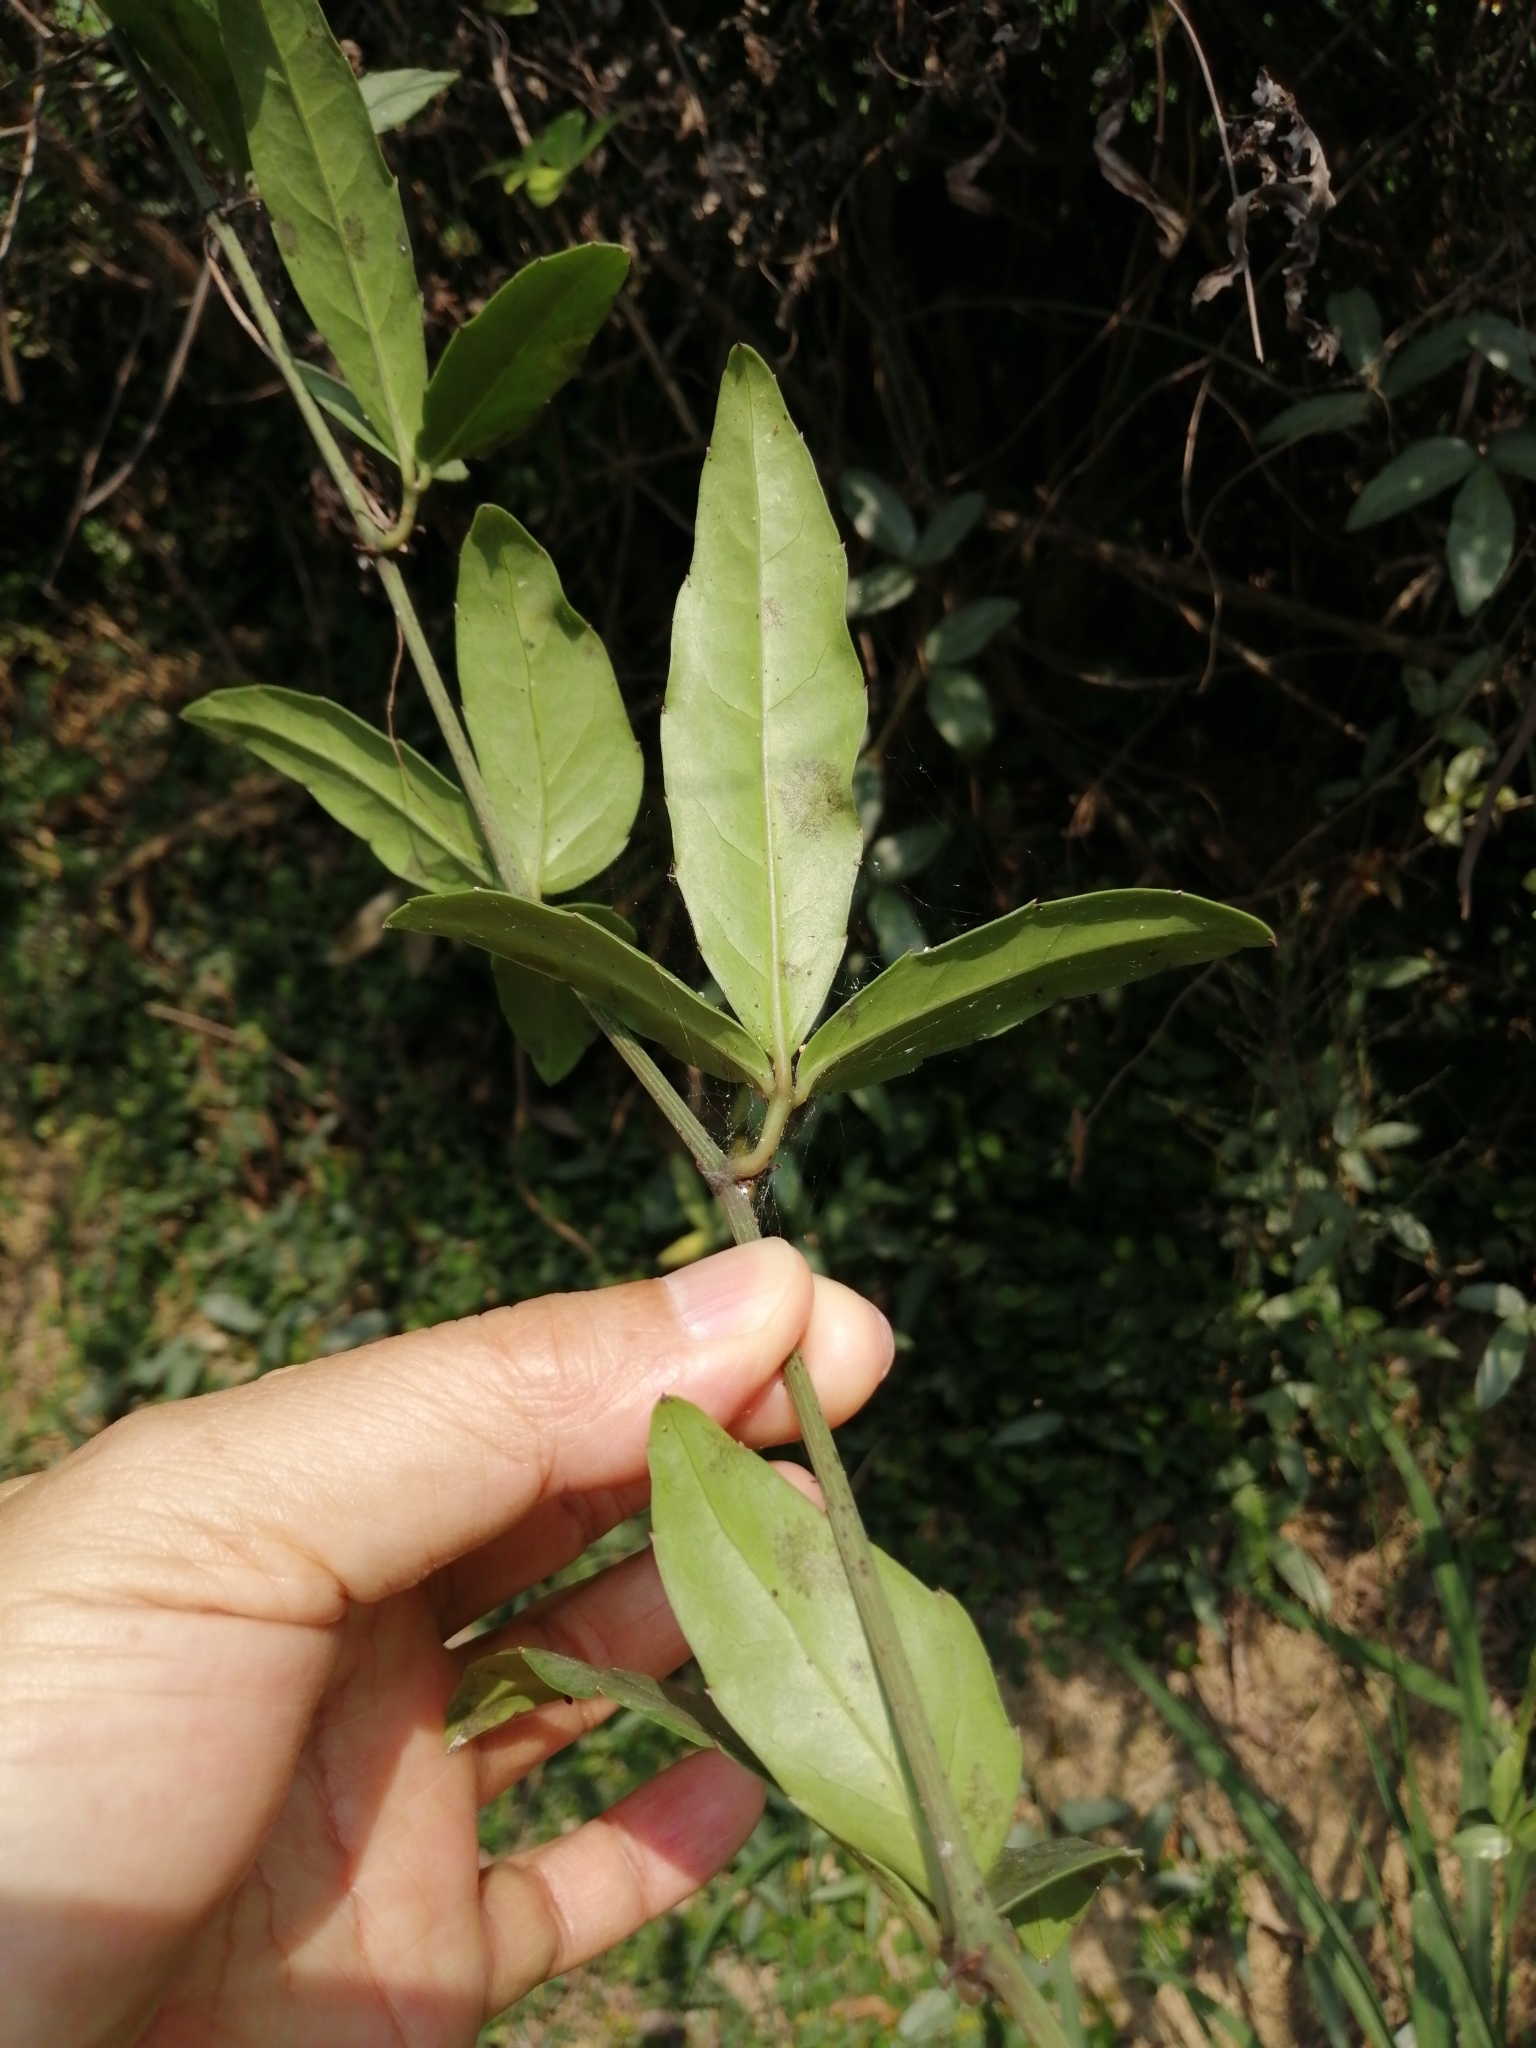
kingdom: Plantae
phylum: Tracheophyta
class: Magnoliopsida
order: Vitales
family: Vitaceae
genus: Tetrastigma
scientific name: Tetrastigma formosanum
